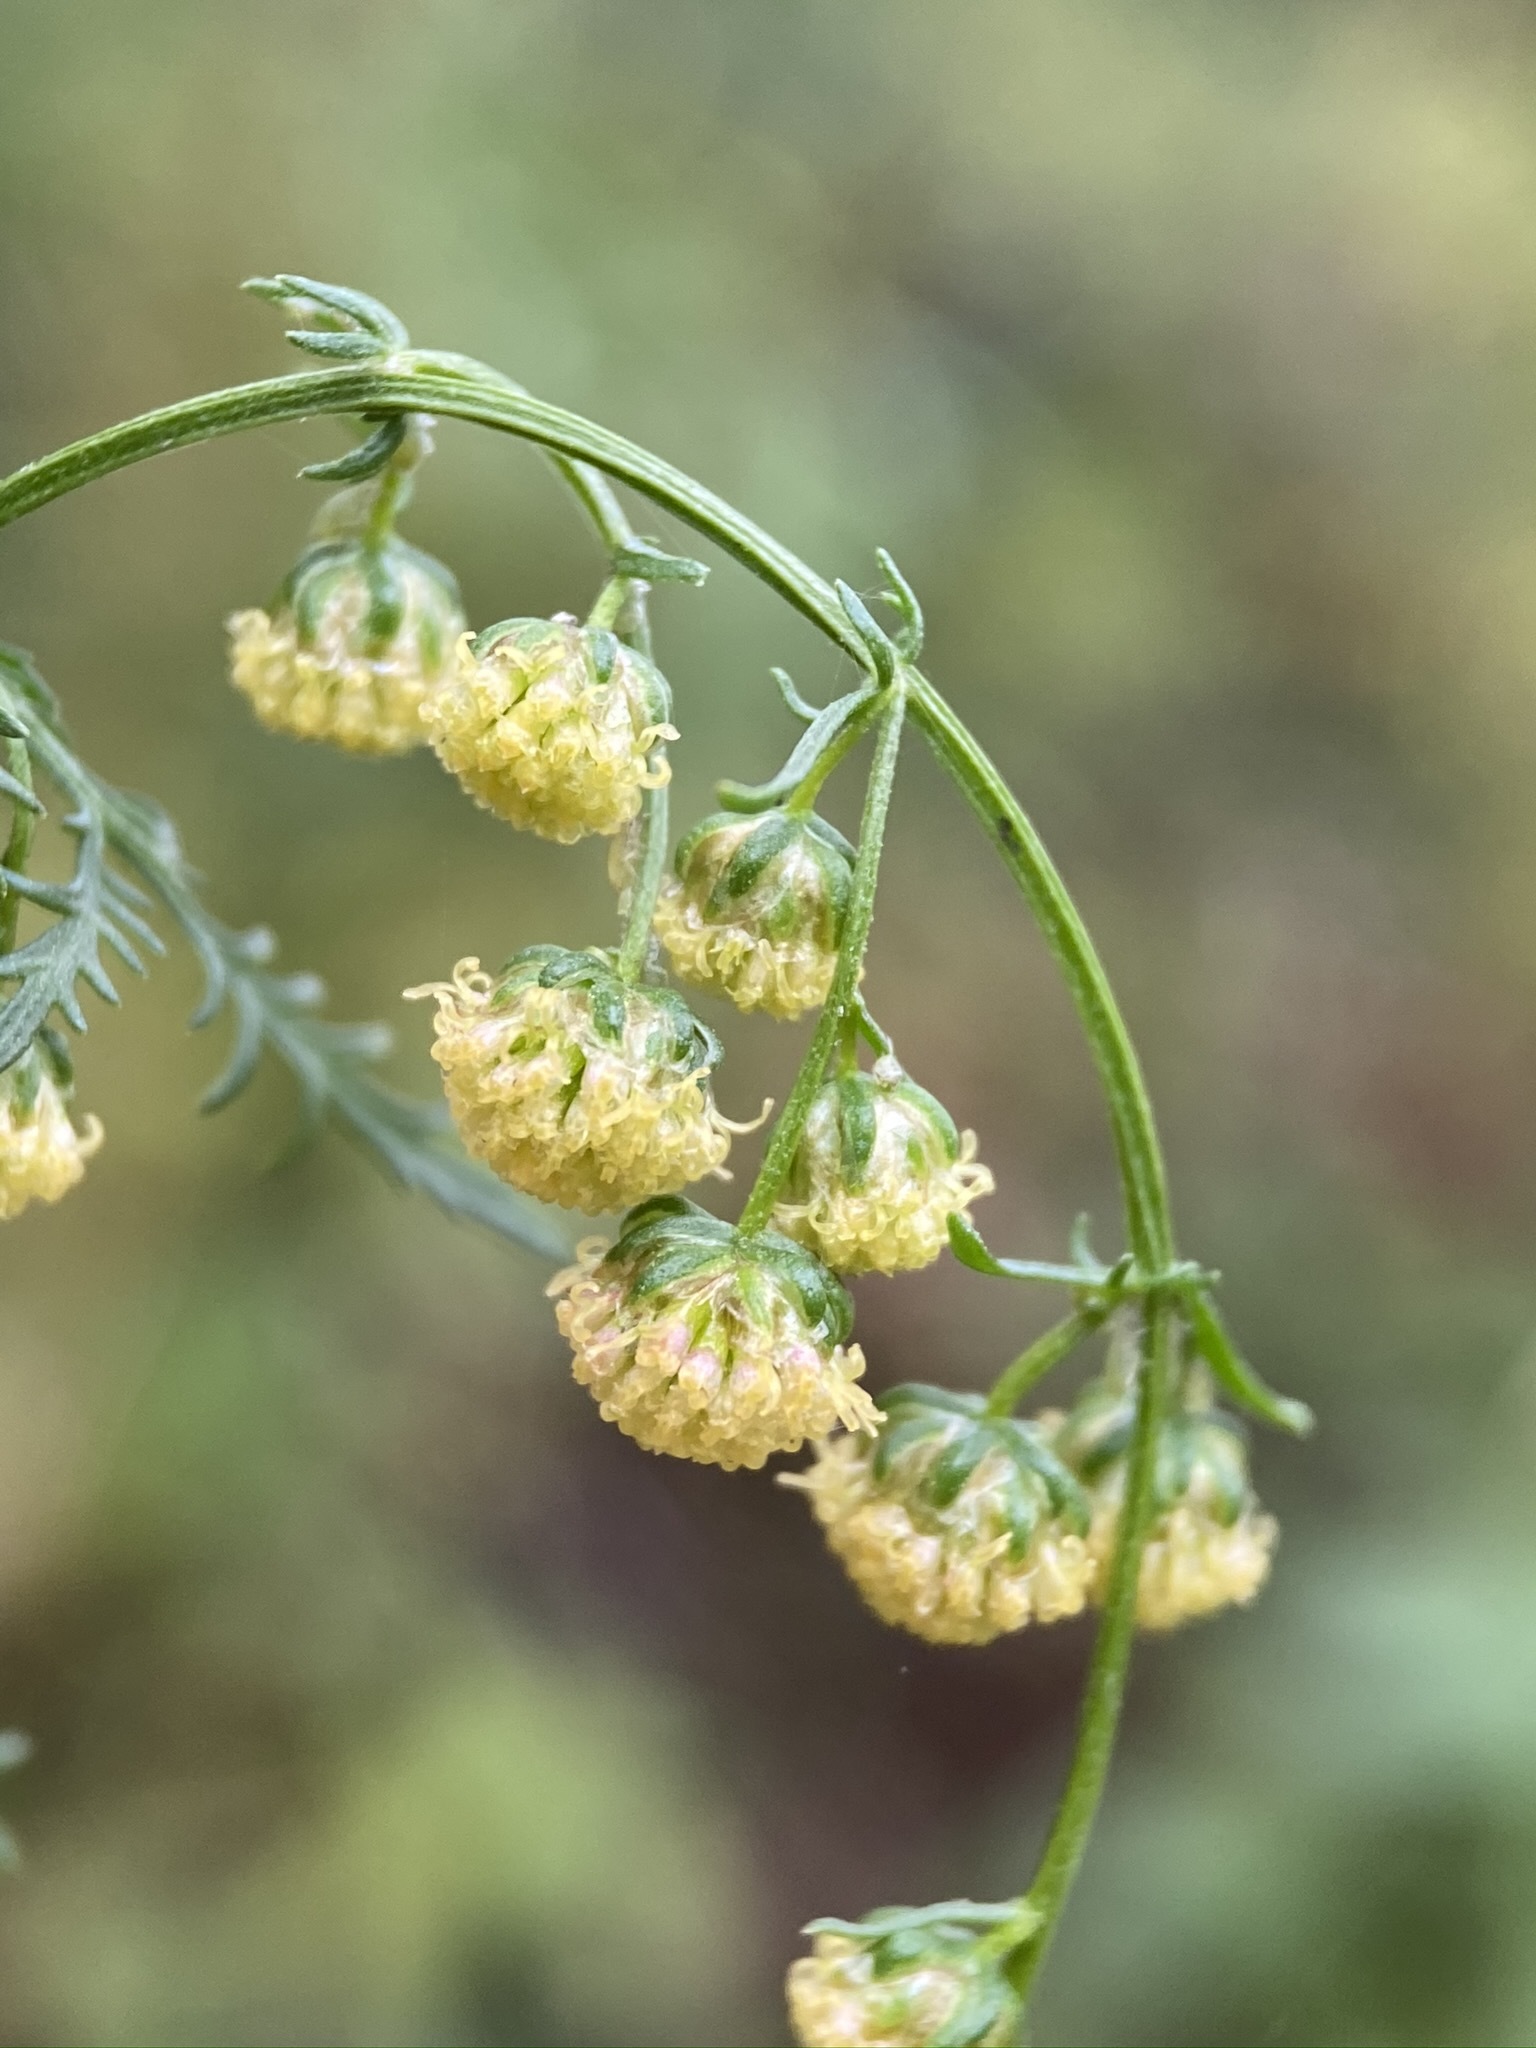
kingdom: Plantae
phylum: Tracheophyta
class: Magnoliopsida
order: Asterales
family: Asteraceae
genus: Artemisia
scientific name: Artemisia annua
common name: Sweet sagewort
